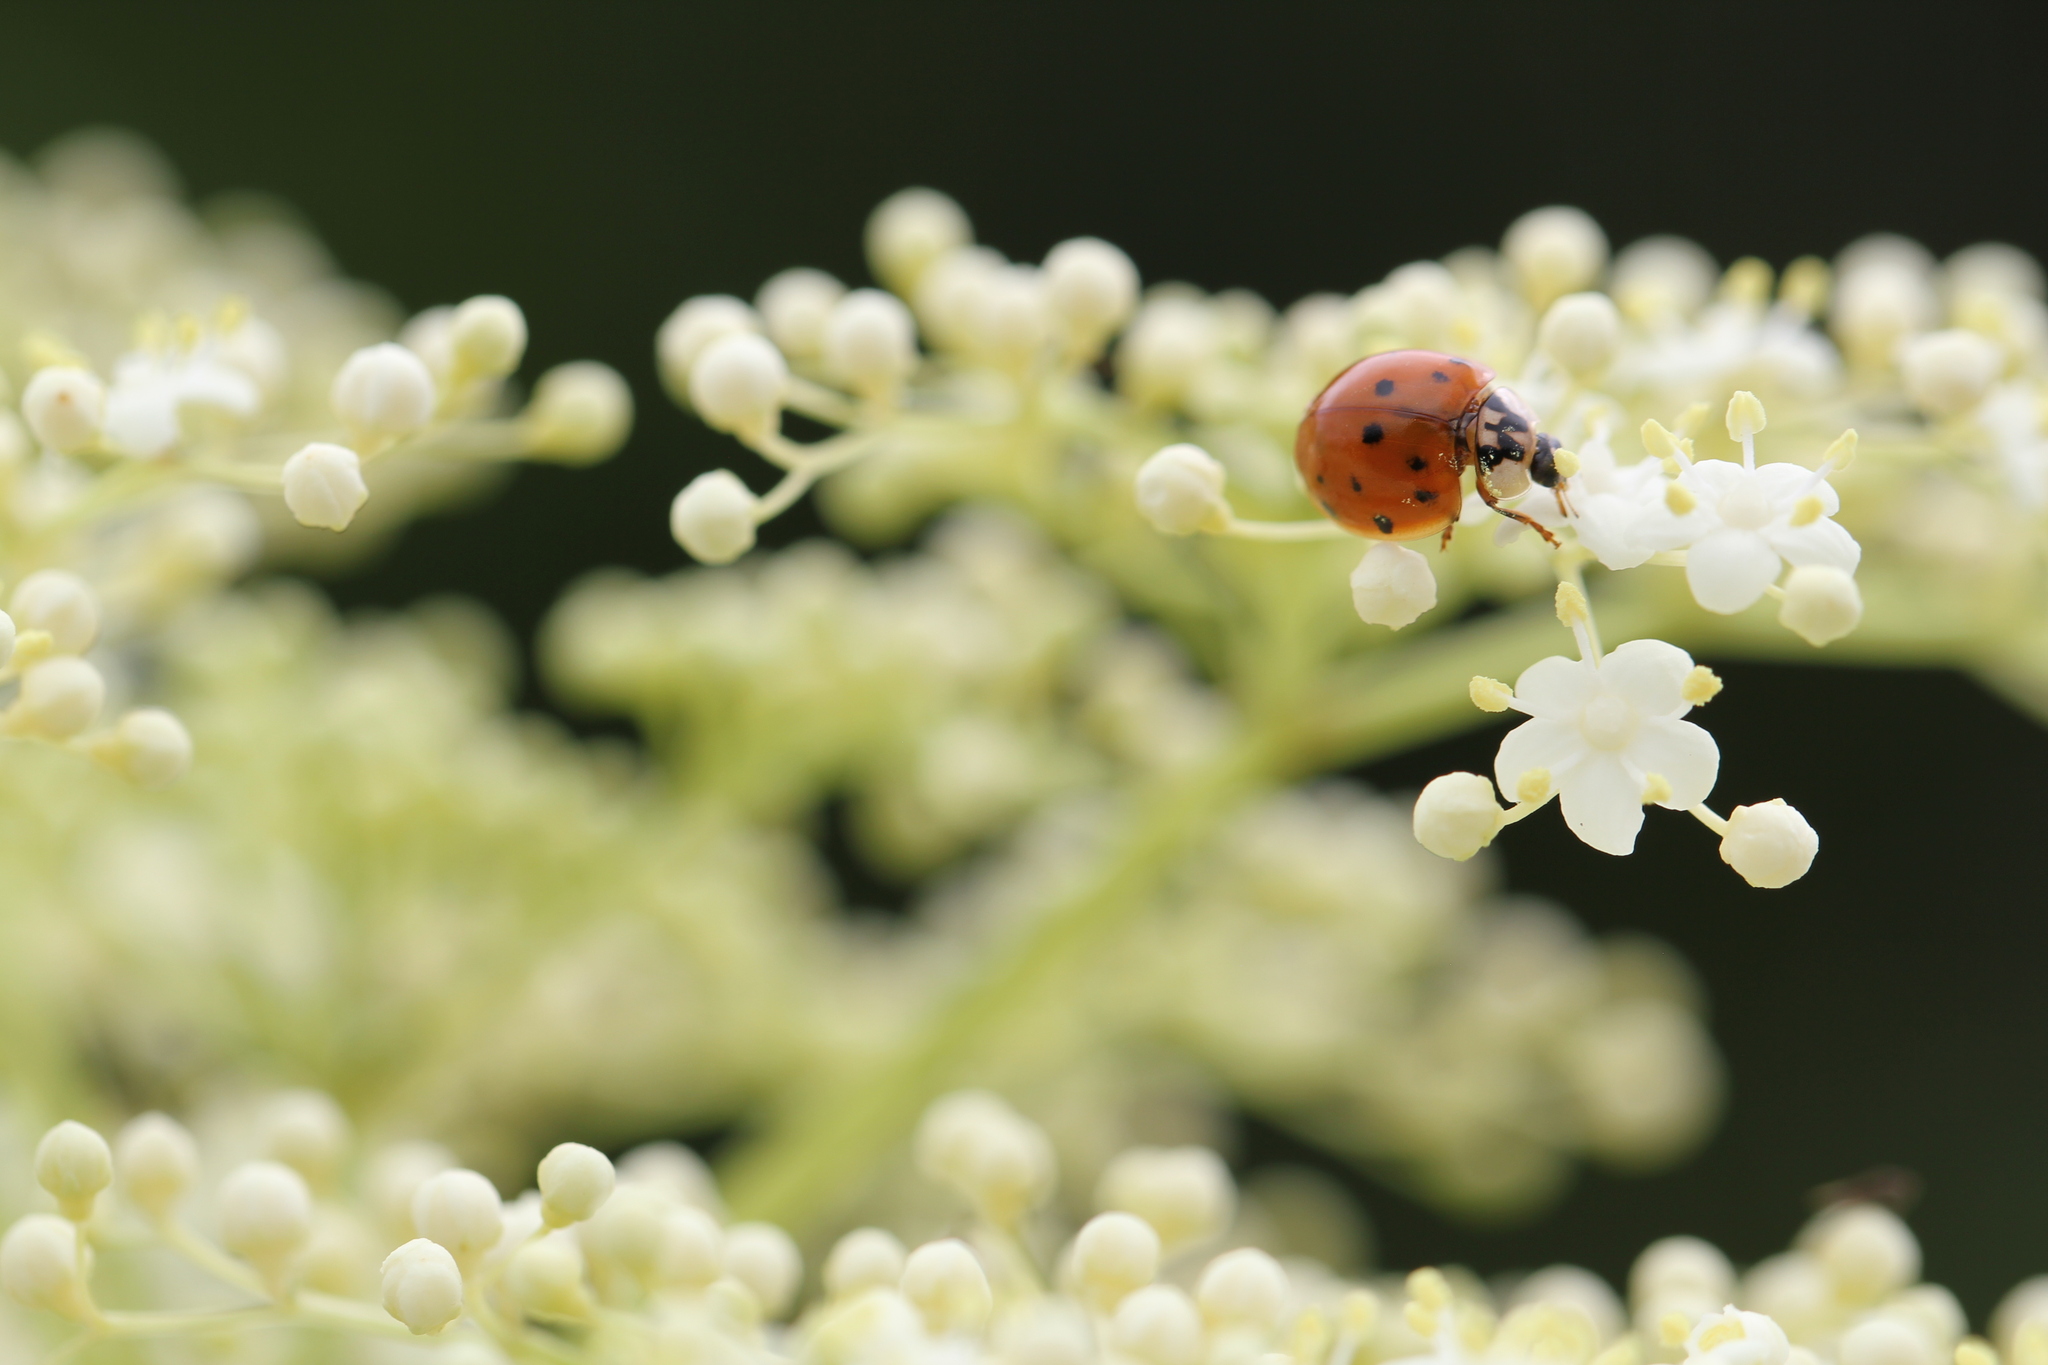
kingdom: Animalia
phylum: Arthropoda
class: Insecta
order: Coleoptera
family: Coccinellidae
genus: Harmonia
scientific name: Harmonia axyridis
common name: Harlequin ladybird
